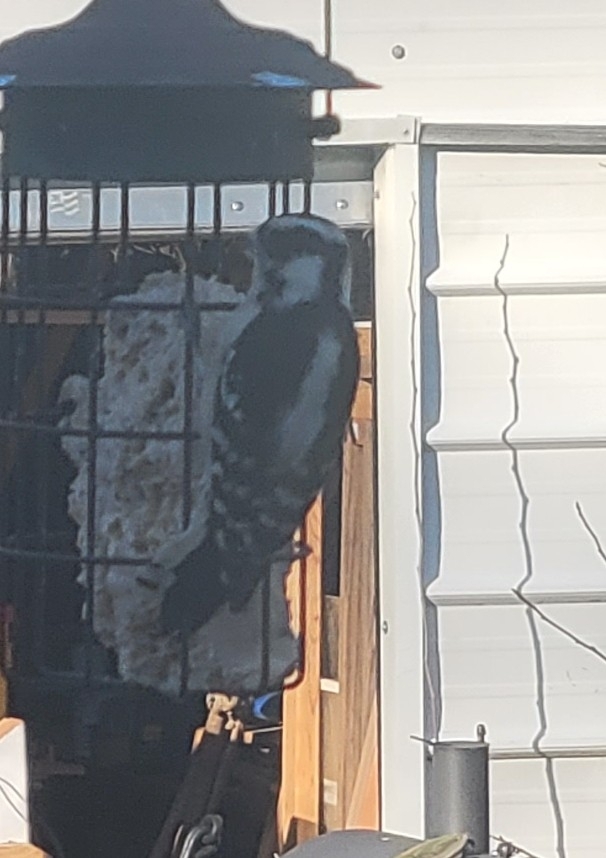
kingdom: Animalia
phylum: Chordata
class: Aves
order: Piciformes
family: Picidae
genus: Dryobates
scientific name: Dryobates pubescens
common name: Downy woodpecker
